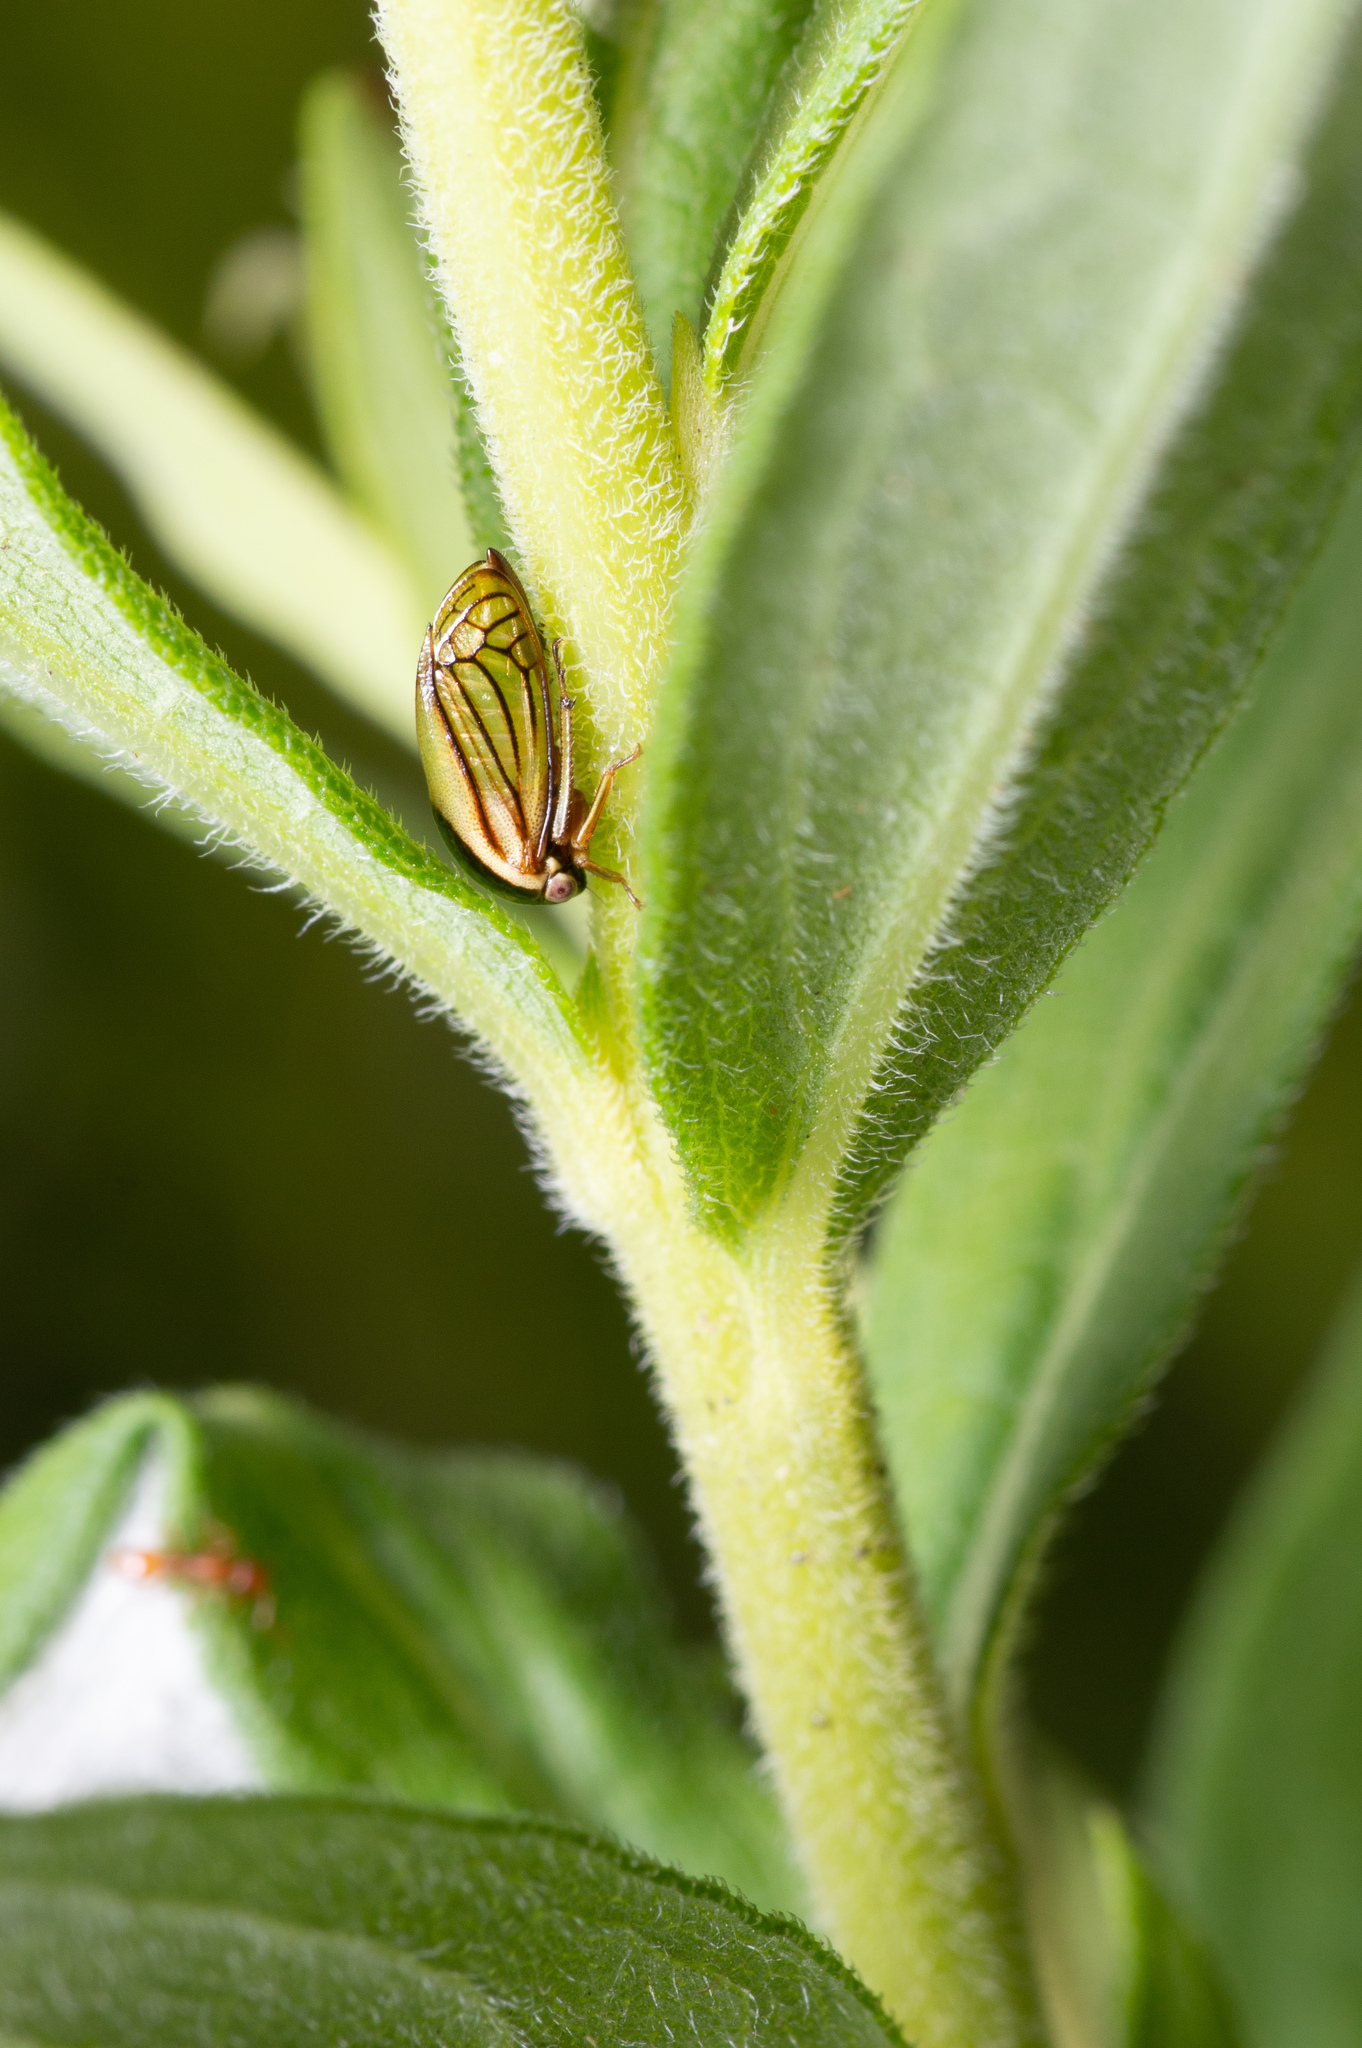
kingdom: Animalia
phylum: Arthropoda
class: Insecta
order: Hemiptera
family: Membracidae
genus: Acutalis
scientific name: Acutalis tartarea
